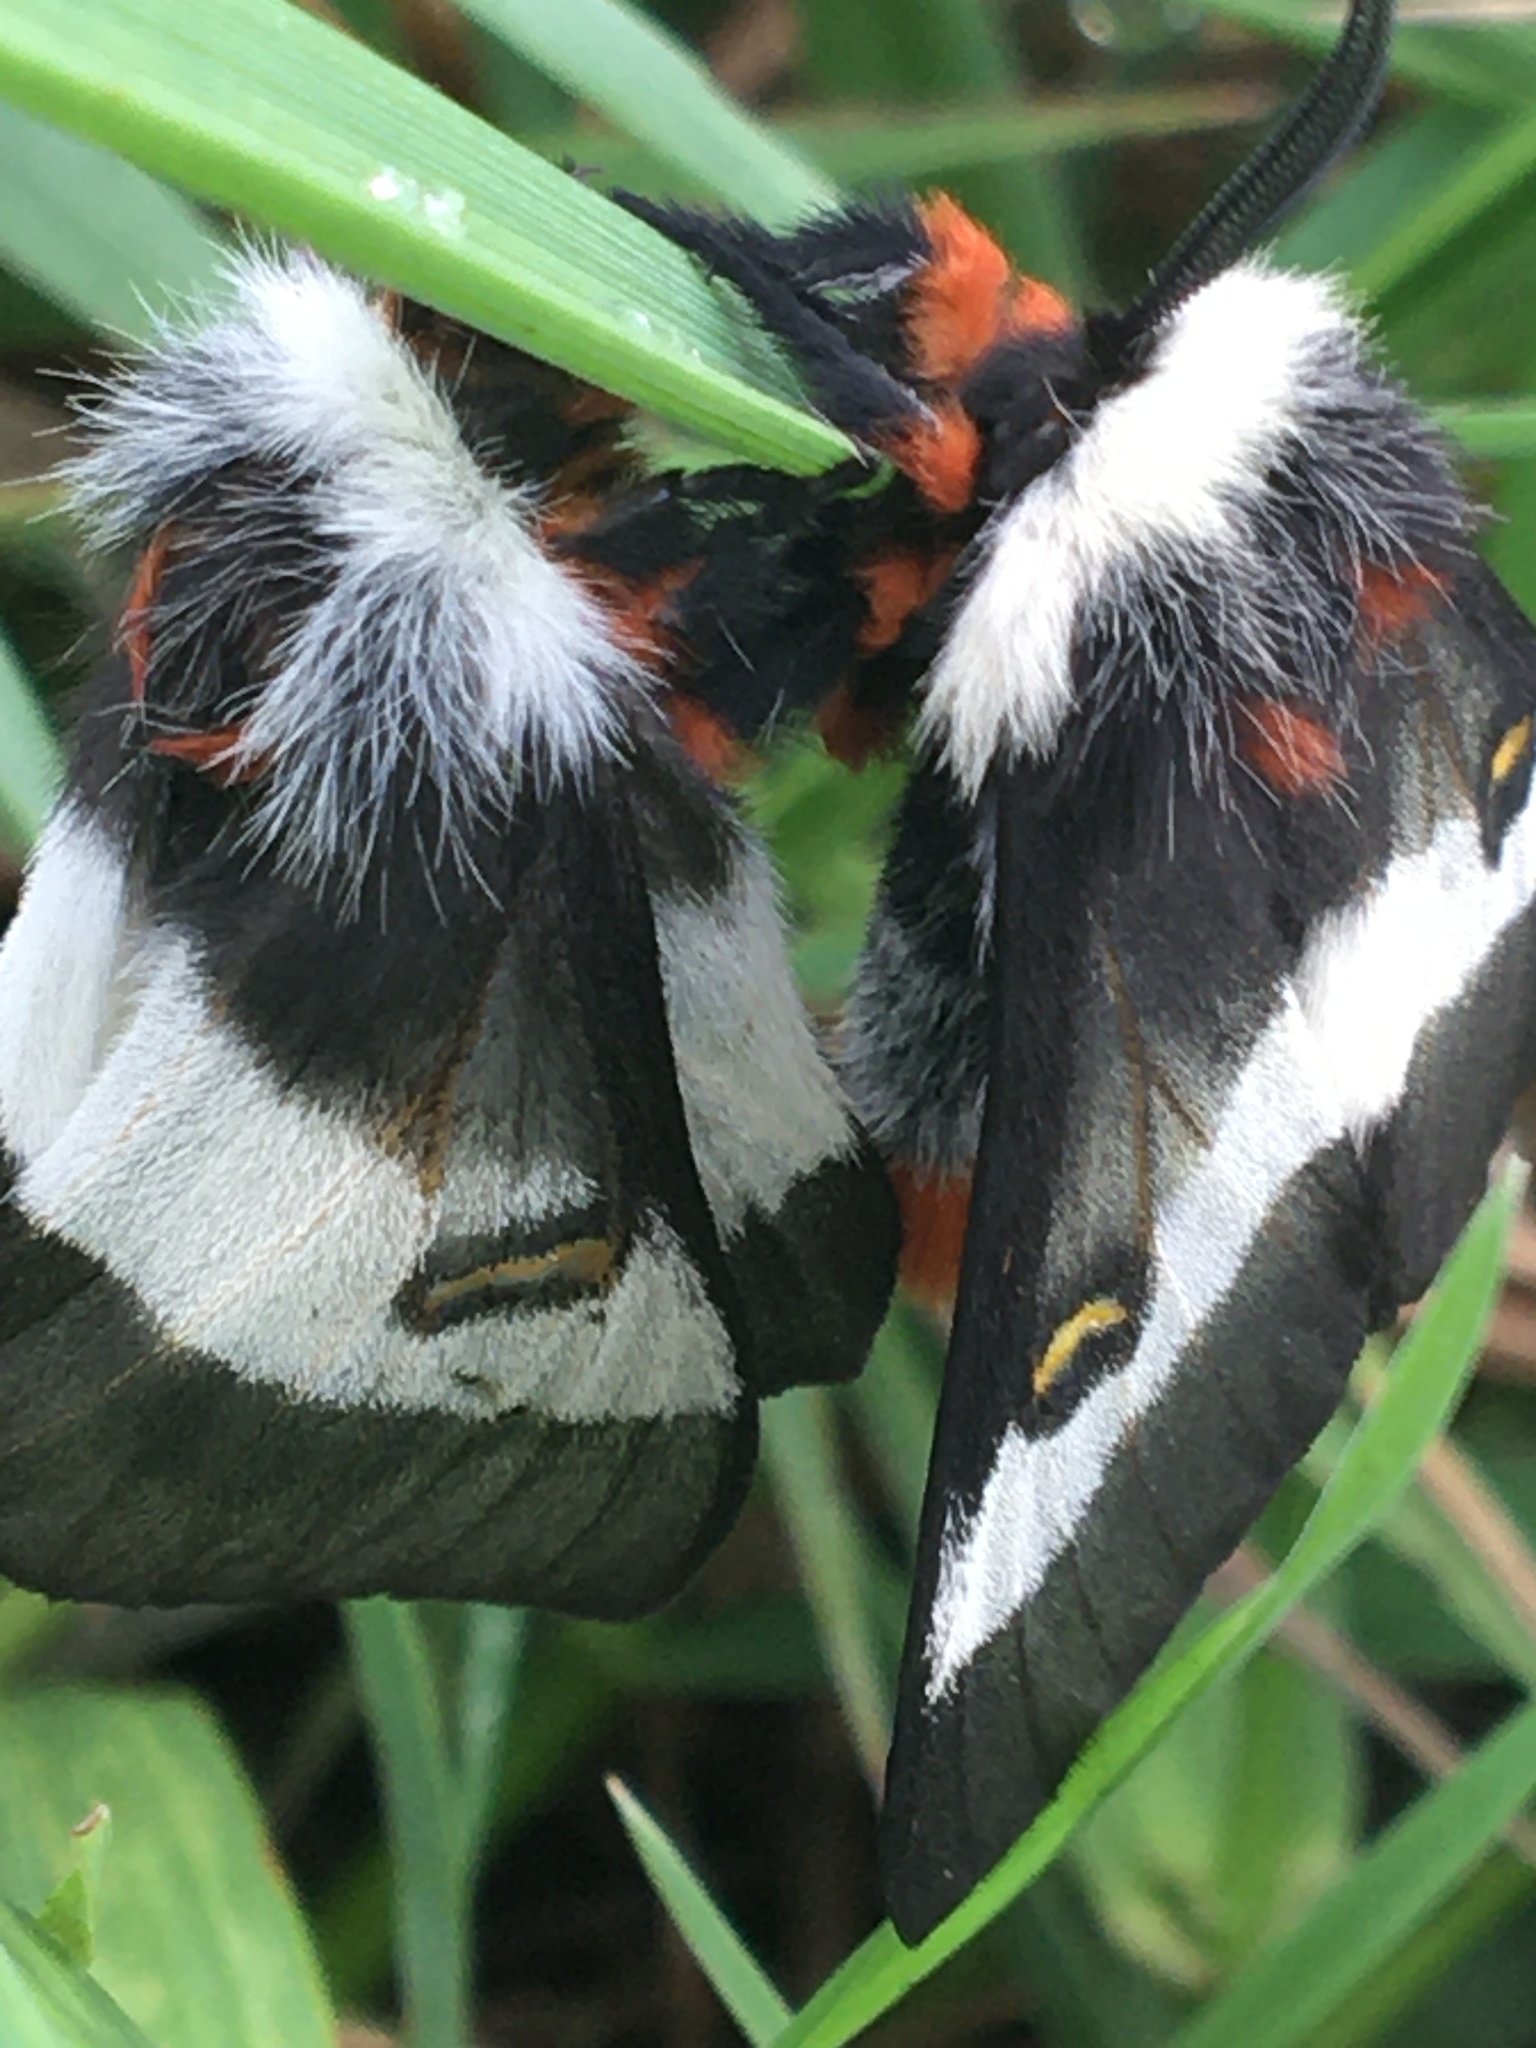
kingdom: Animalia
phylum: Arthropoda
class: Insecta
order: Lepidoptera
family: Saturniidae
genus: Hemileuca
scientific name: Hemileuca lucina
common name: New england buckmoth
